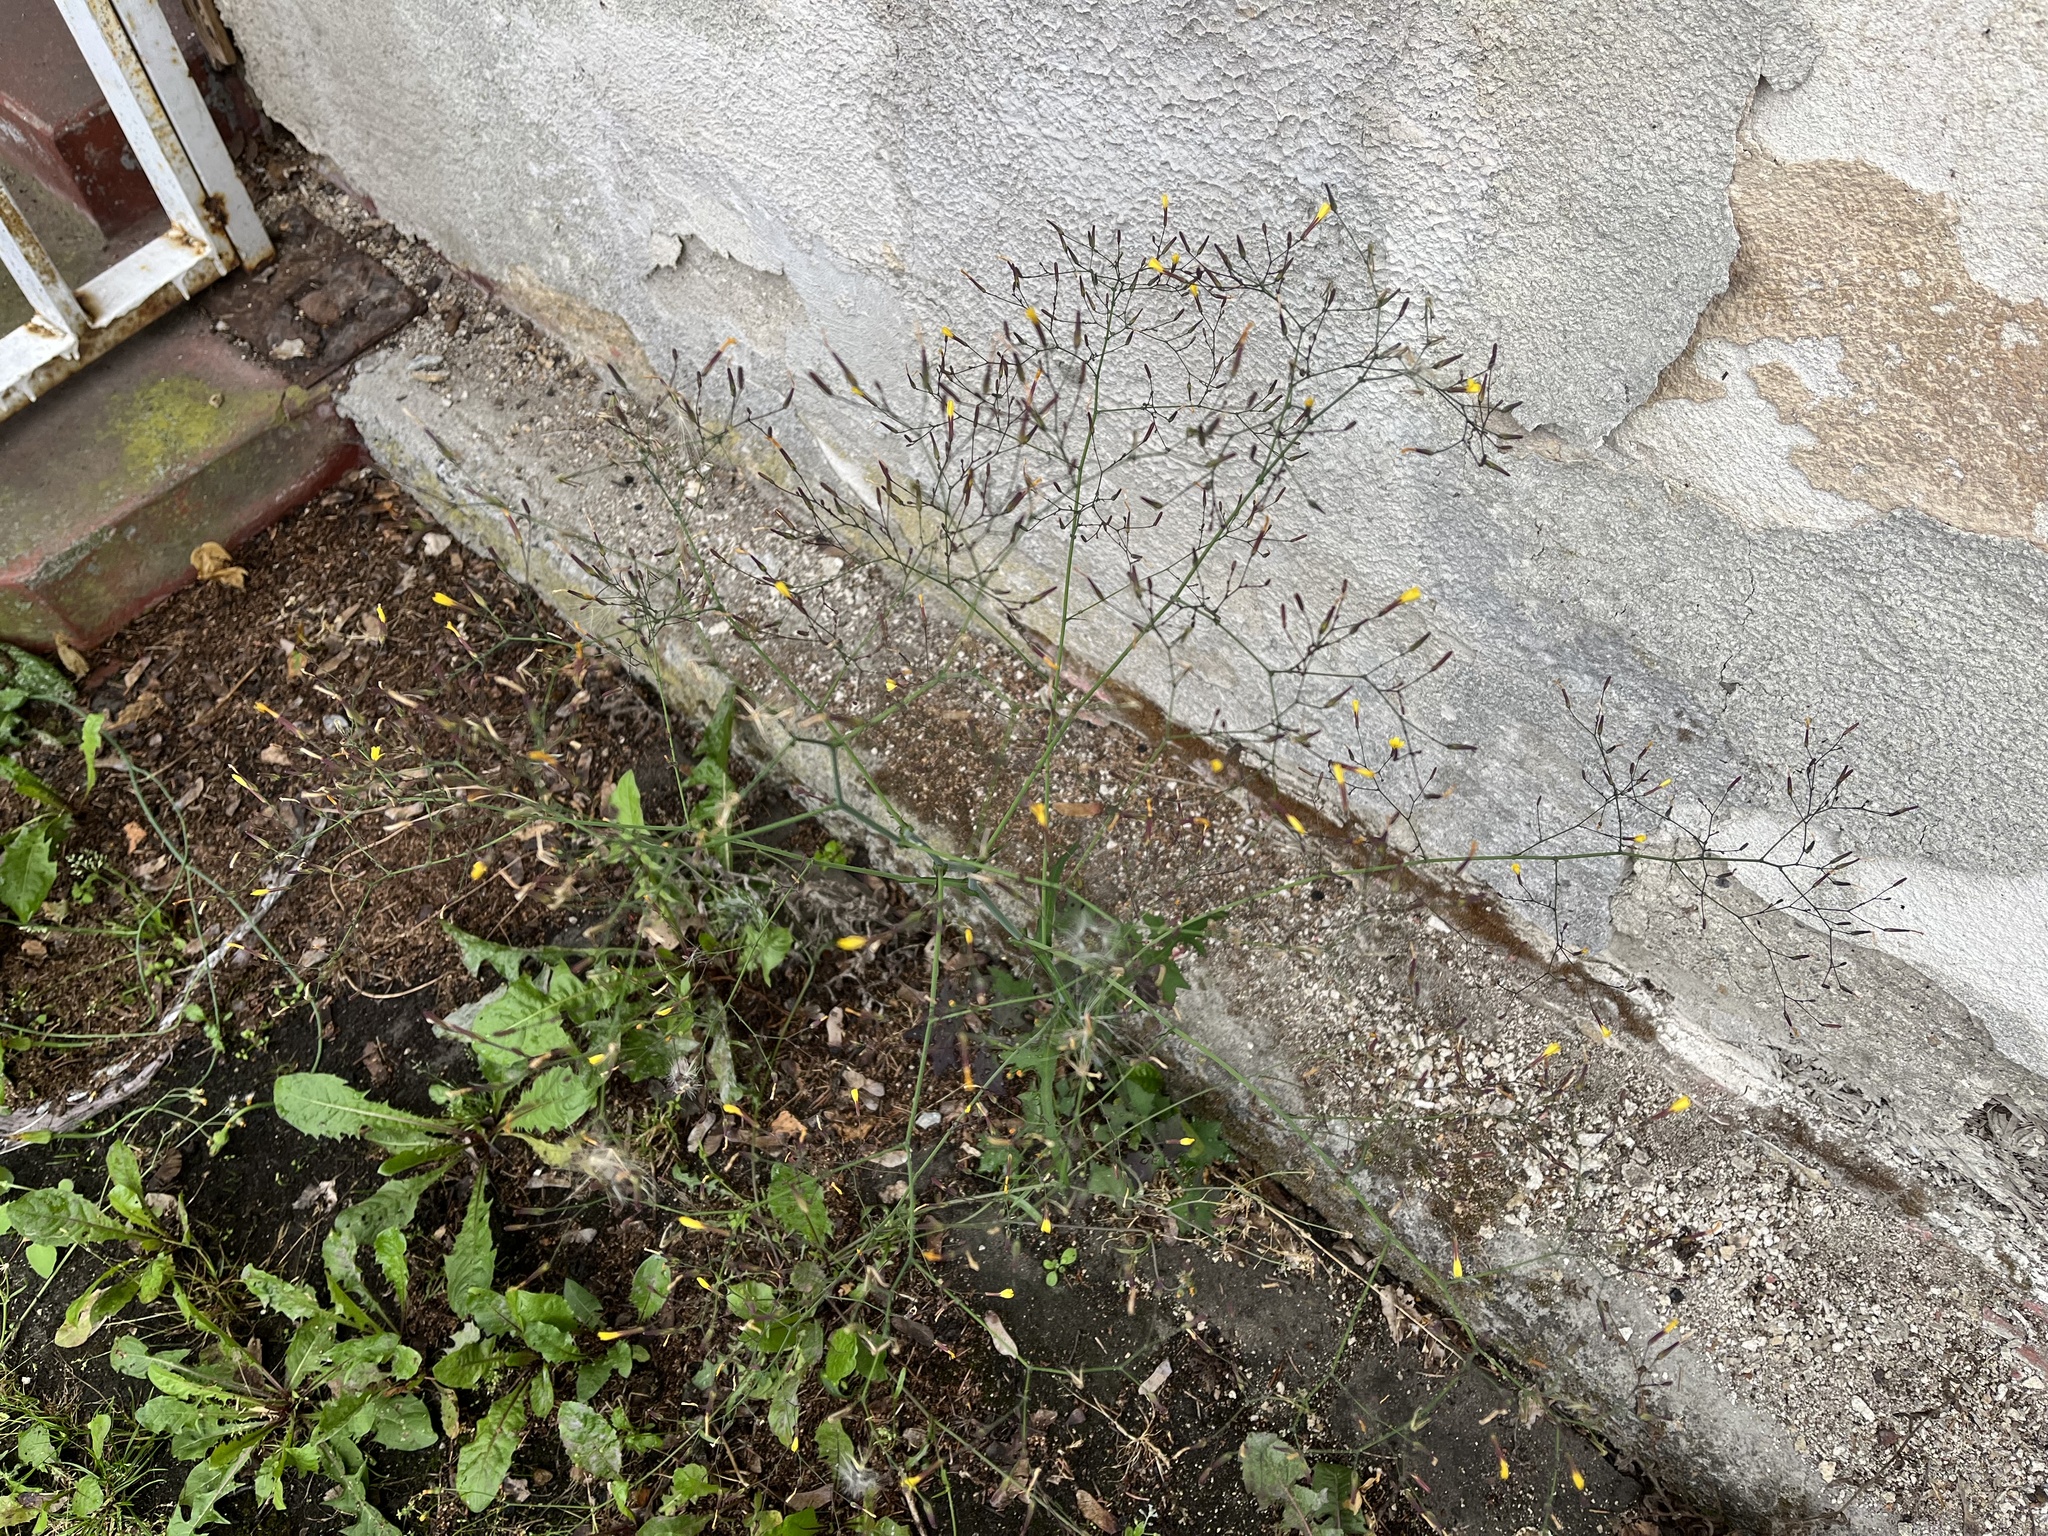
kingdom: Plantae
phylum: Tracheophyta
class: Magnoliopsida
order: Asterales
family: Asteraceae
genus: Mycelis
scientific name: Mycelis muralis
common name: Wall lettuce
